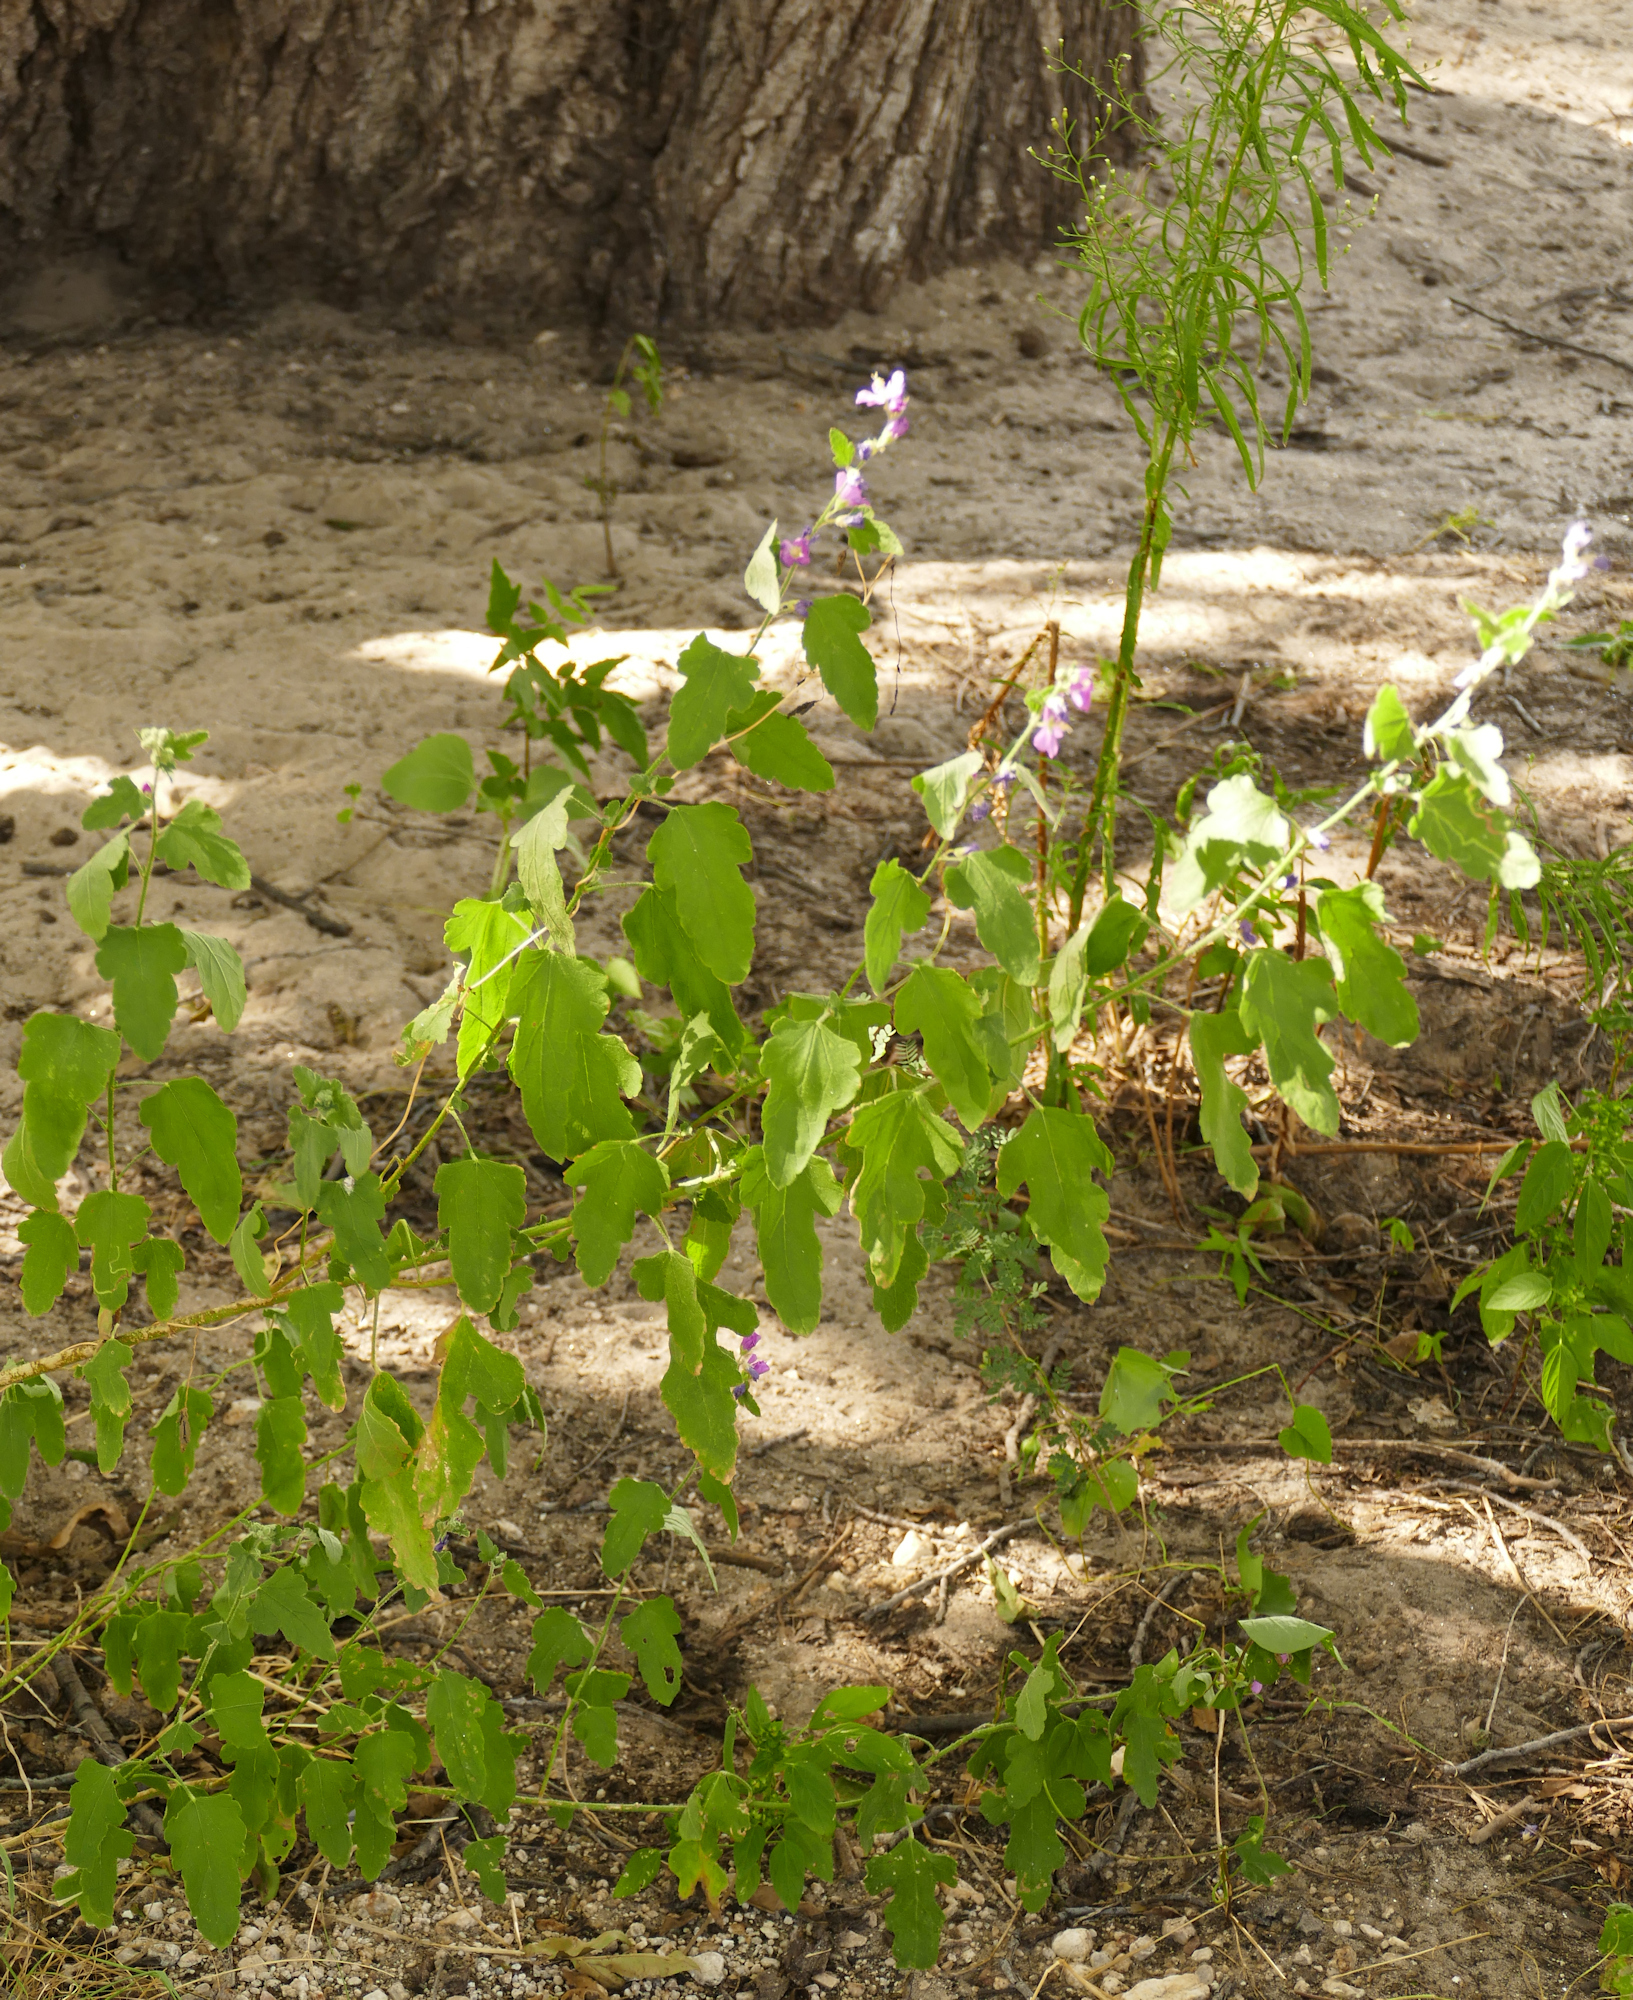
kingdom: Plantae
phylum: Tracheophyta
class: Magnoliopsida
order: Malvales
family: Malvaceae
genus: Sphaeralcea
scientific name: Sphaeralcea fendleri
